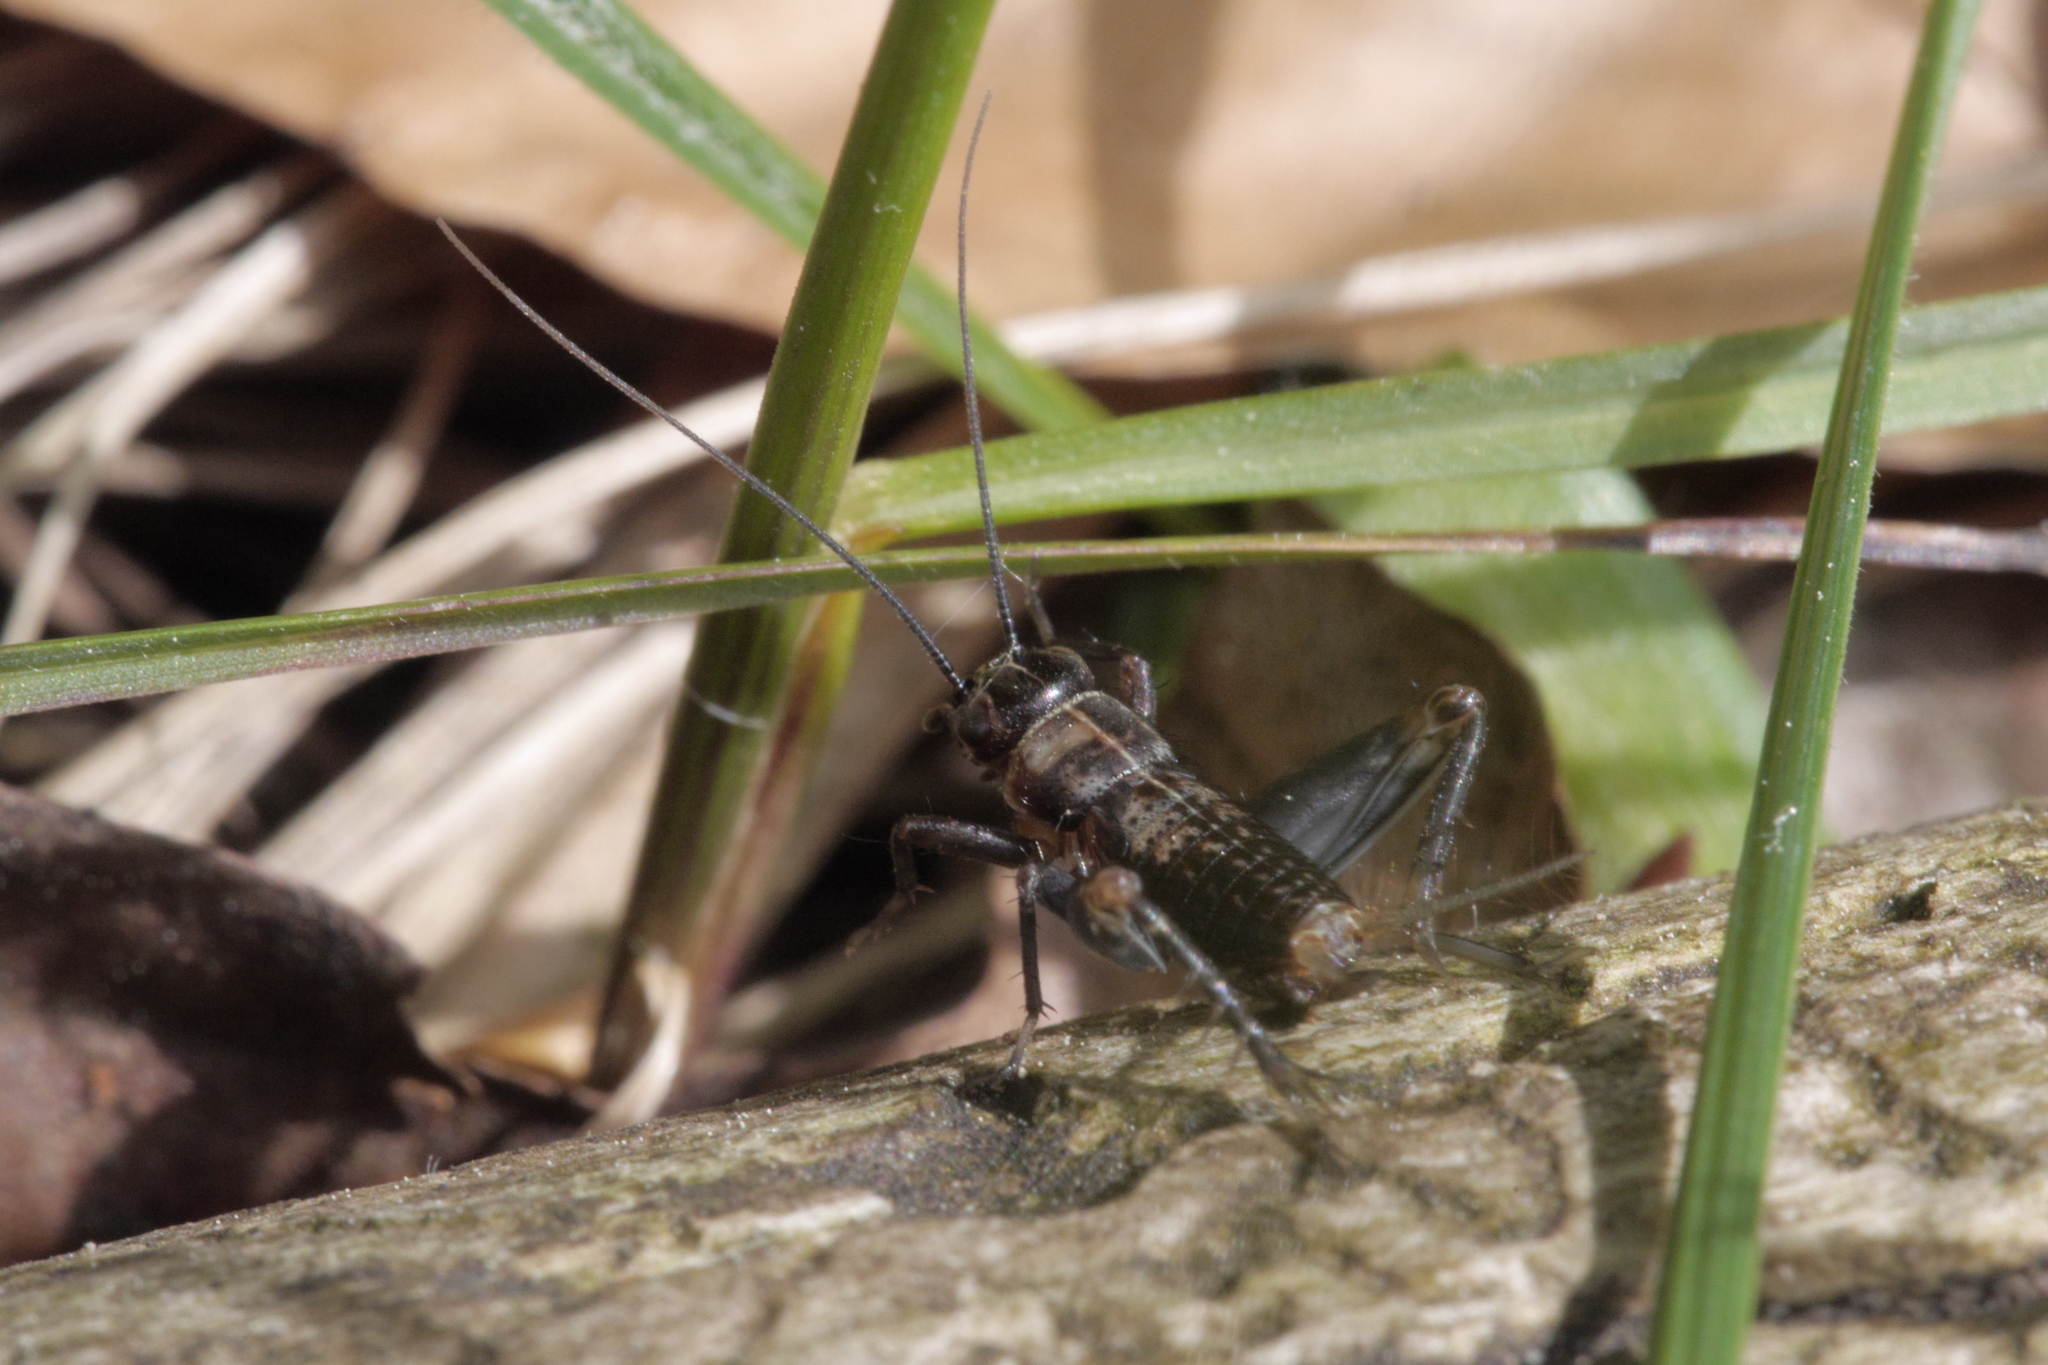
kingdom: Animalia
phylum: Arthropoda
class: Insecta
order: Orthoptera
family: Trigonidiidae
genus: Nemobius
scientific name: Nemobius sylvestris
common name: Wood-cricket
